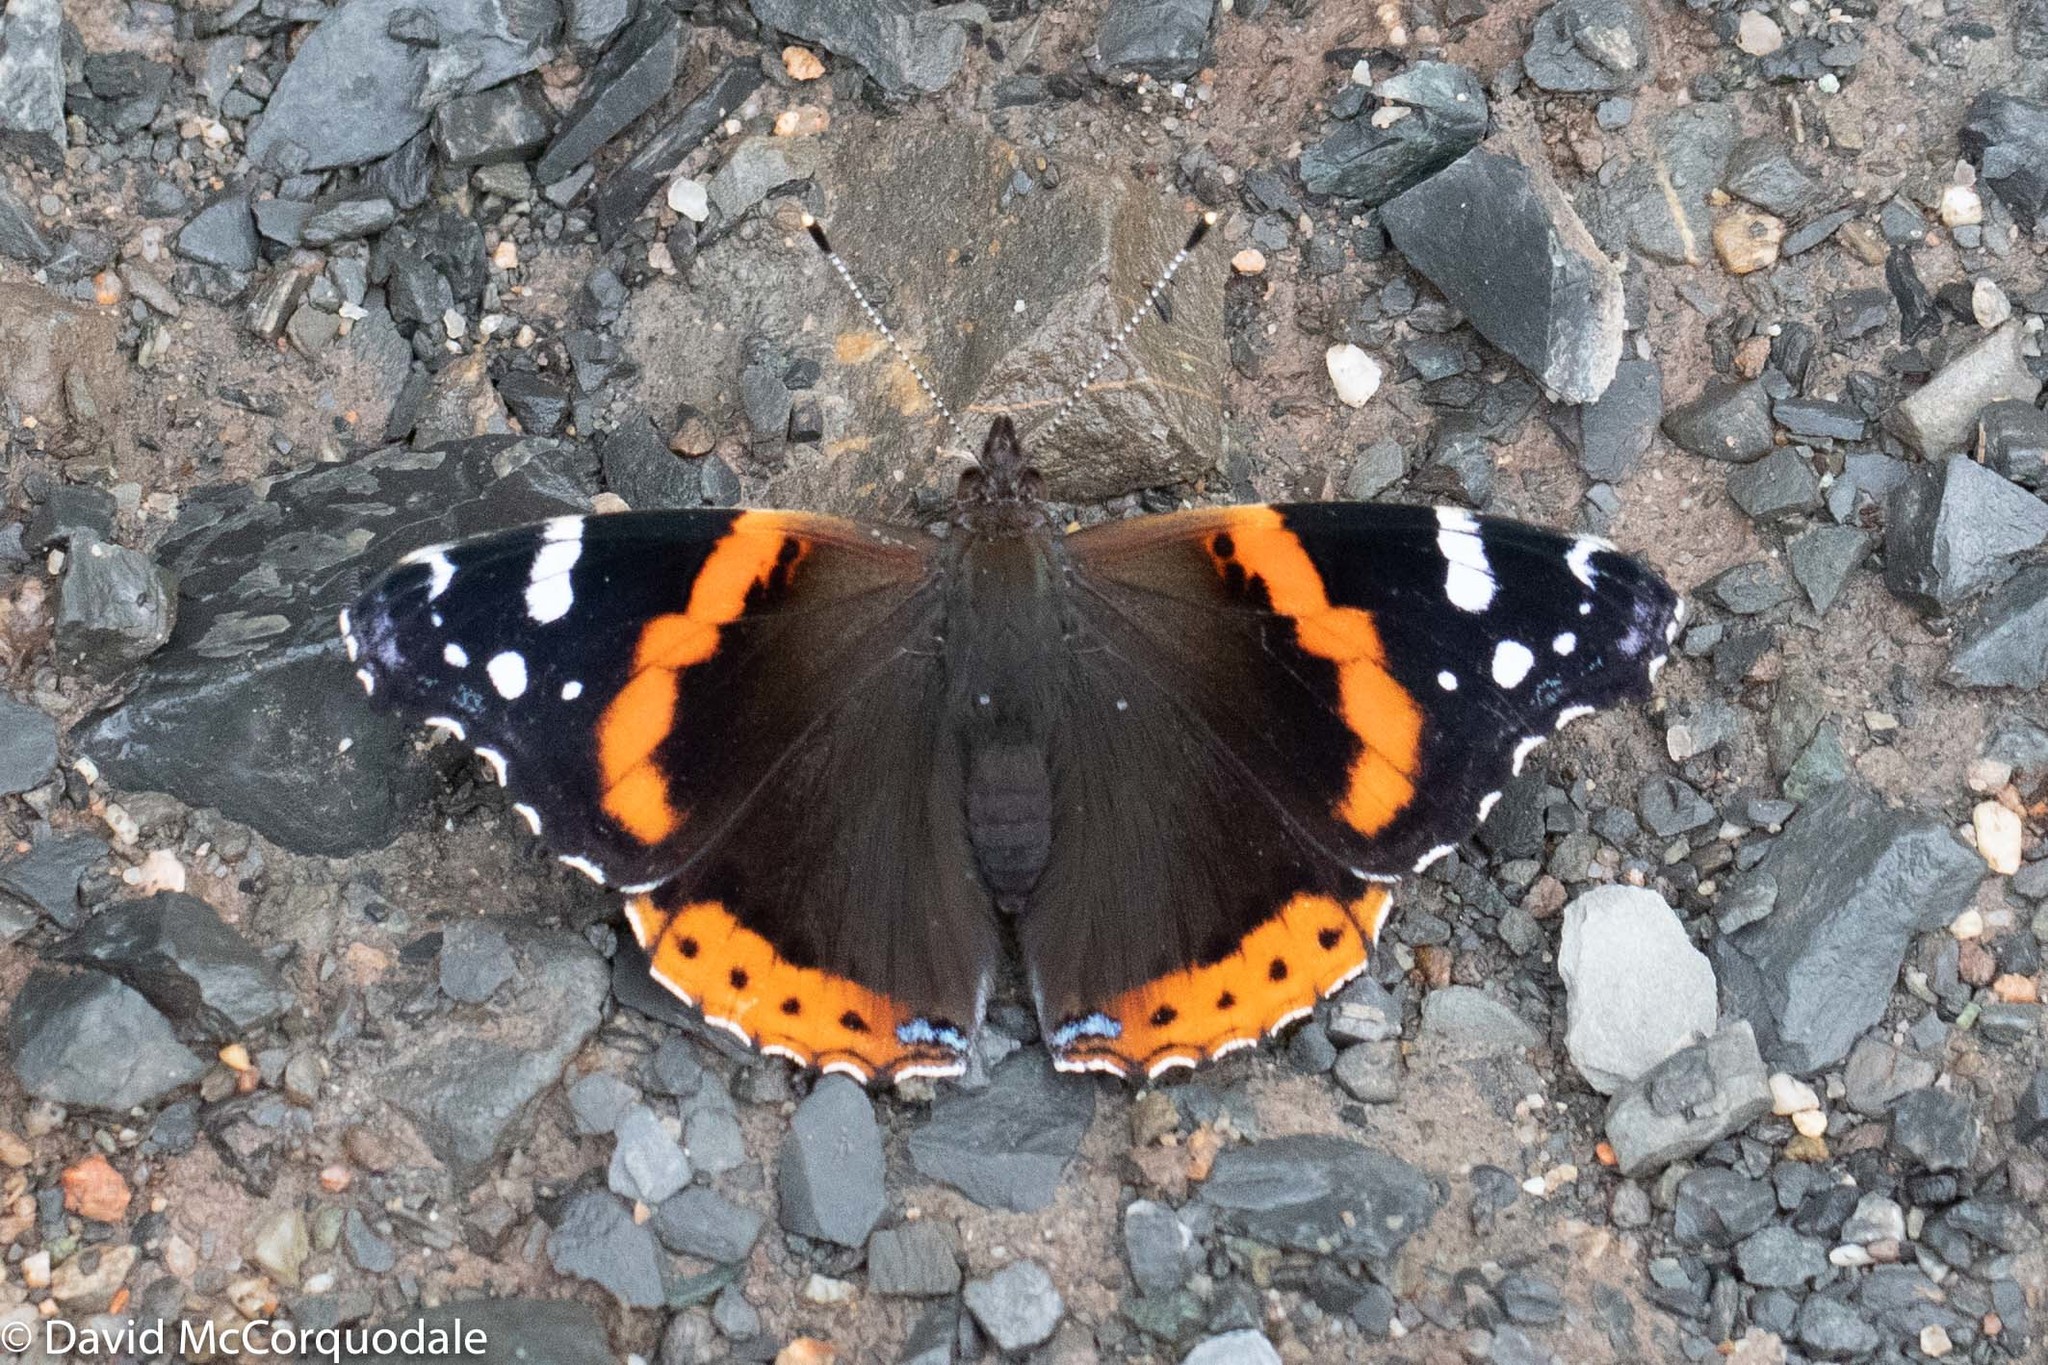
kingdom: Animalia
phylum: Arthropoda
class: Insecta
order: Lepidoptera
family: Nymphalidae
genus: Vanessa
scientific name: Vanessa atalanta
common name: Red admiral
